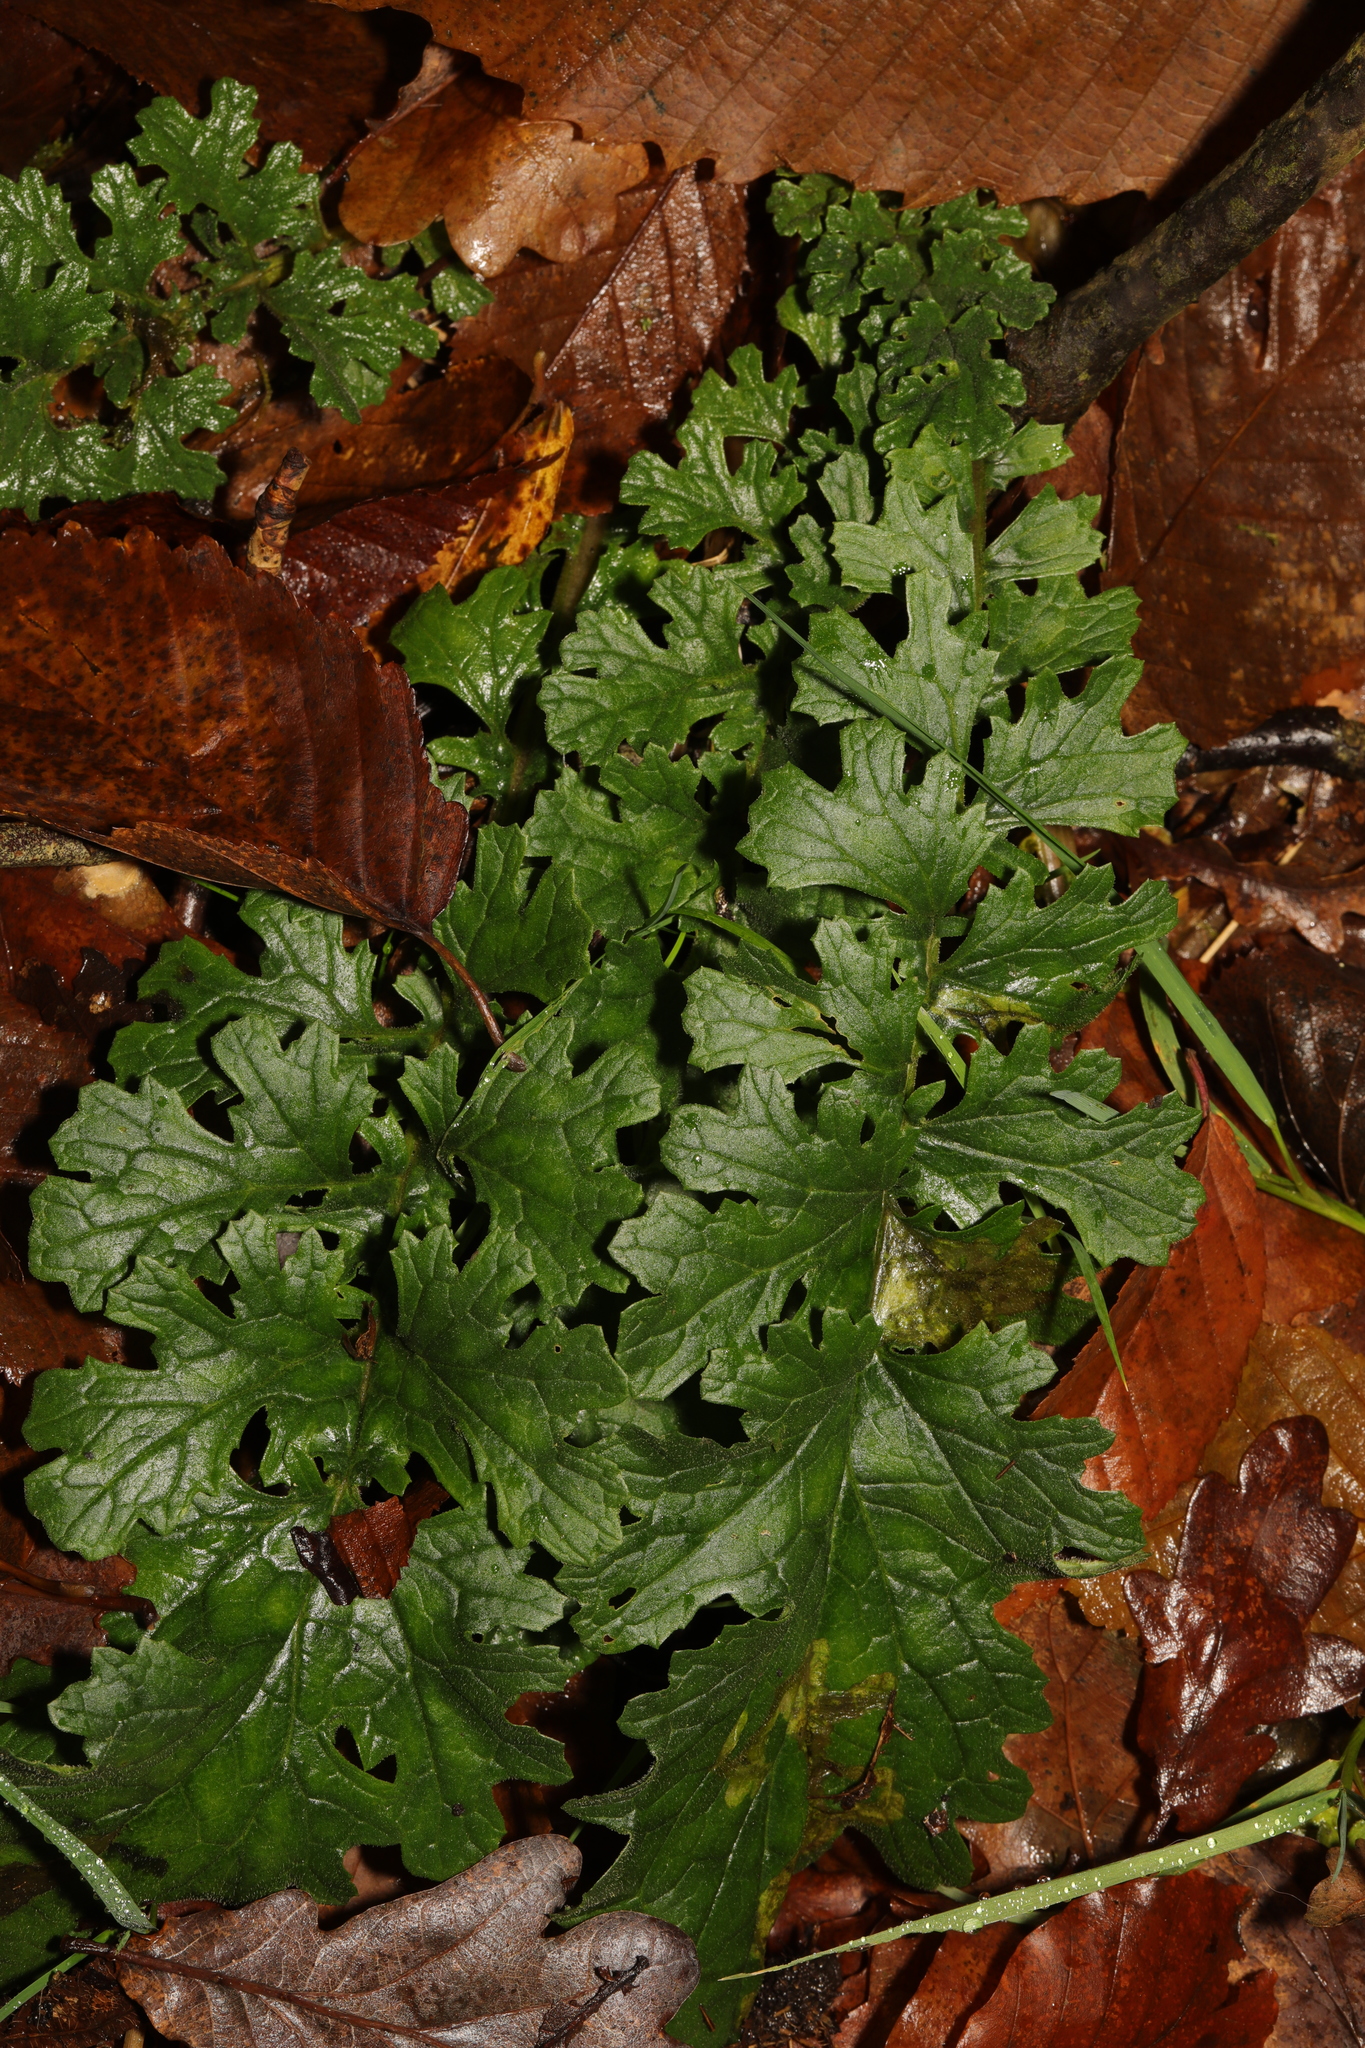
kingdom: Plantae
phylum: Tracheophyta
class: Magnoliopsida
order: Asterales
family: Asteraceae
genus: Jacobaea
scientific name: Jacobaea vulgaris
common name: Stinking willie
